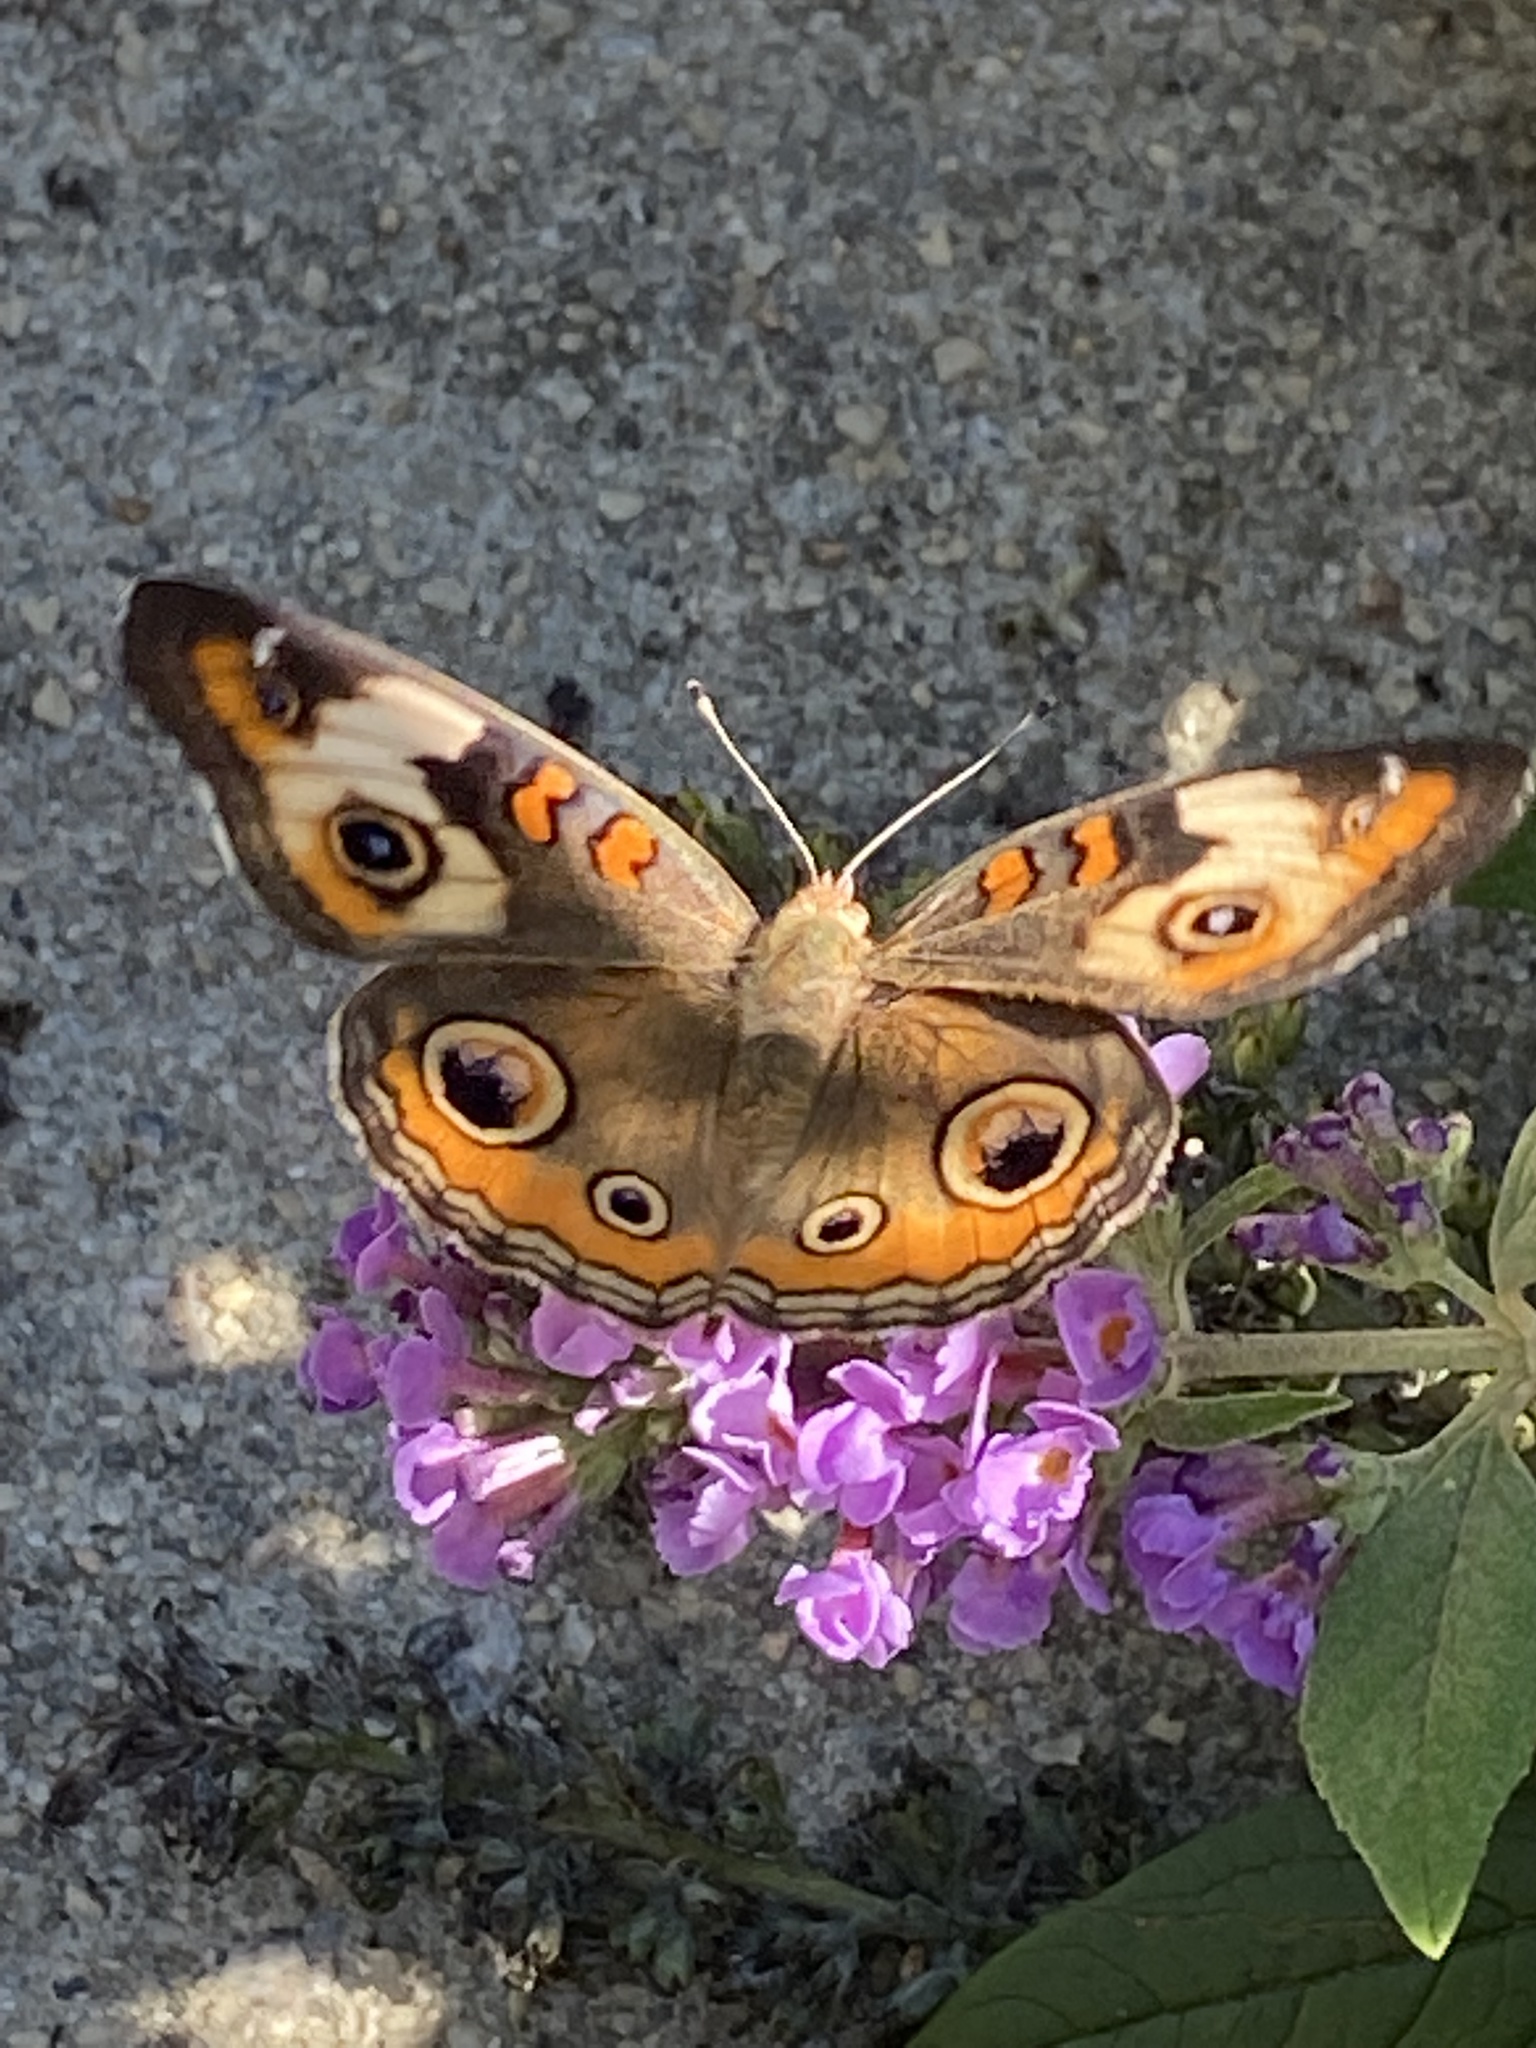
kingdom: Animalia
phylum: Arthropoda
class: Insecta
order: Lepidoptera
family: Nymphalidae
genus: Junonia
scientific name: Junonia coenia
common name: Common buckeye
